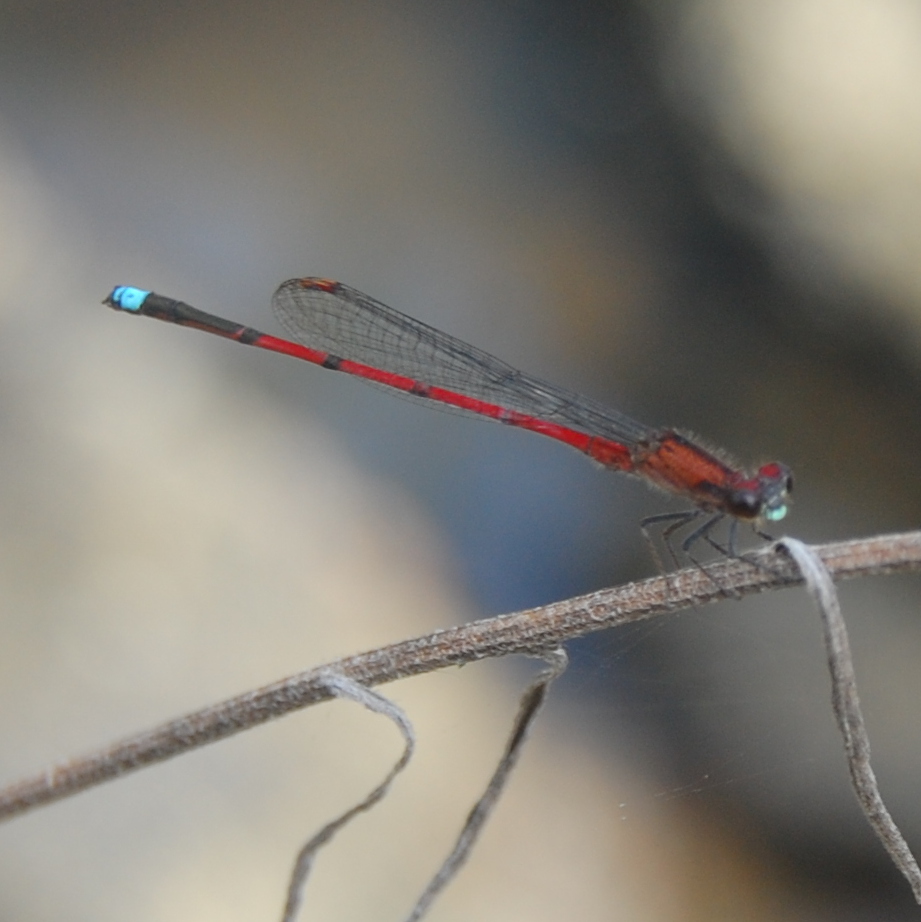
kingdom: Animalia
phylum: Arthropoda
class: Insecta
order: Odonata
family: Coenagrionidae
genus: Oxyagrion
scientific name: Oxyagrion terminale
